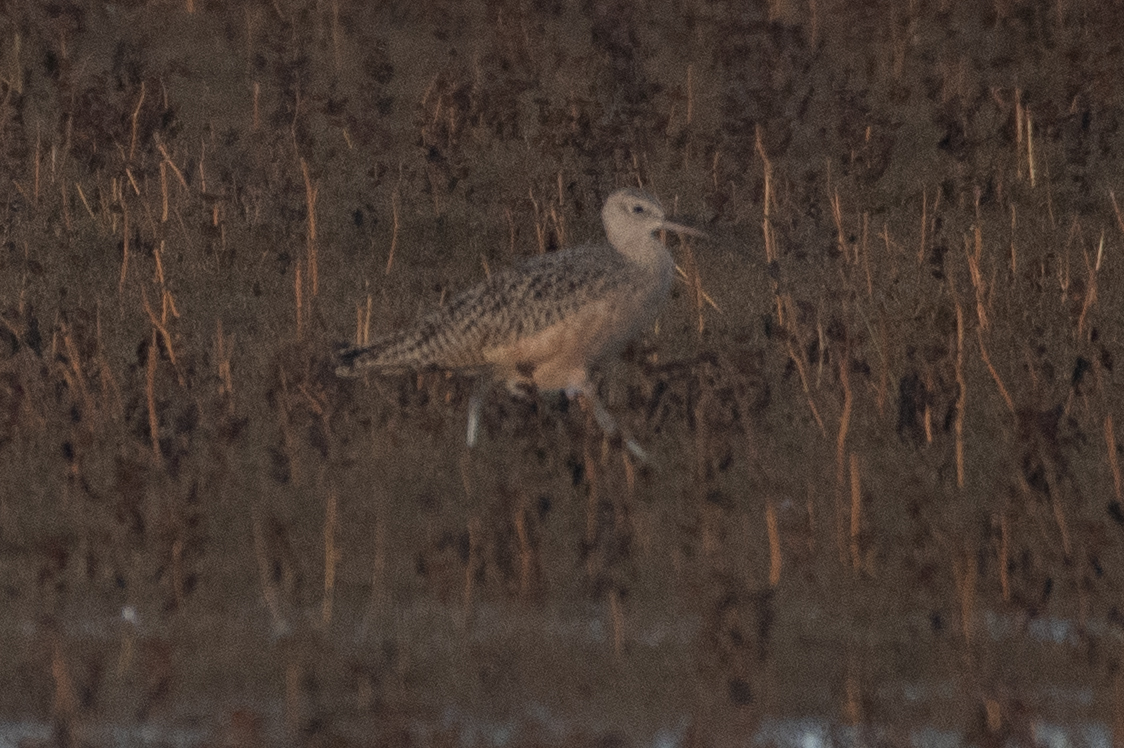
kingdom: Animalia
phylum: Chordata
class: Aves
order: Charadriiformes
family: Scolopacidae
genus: Numenius
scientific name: Numenius americanus
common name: Long-billed curlew
